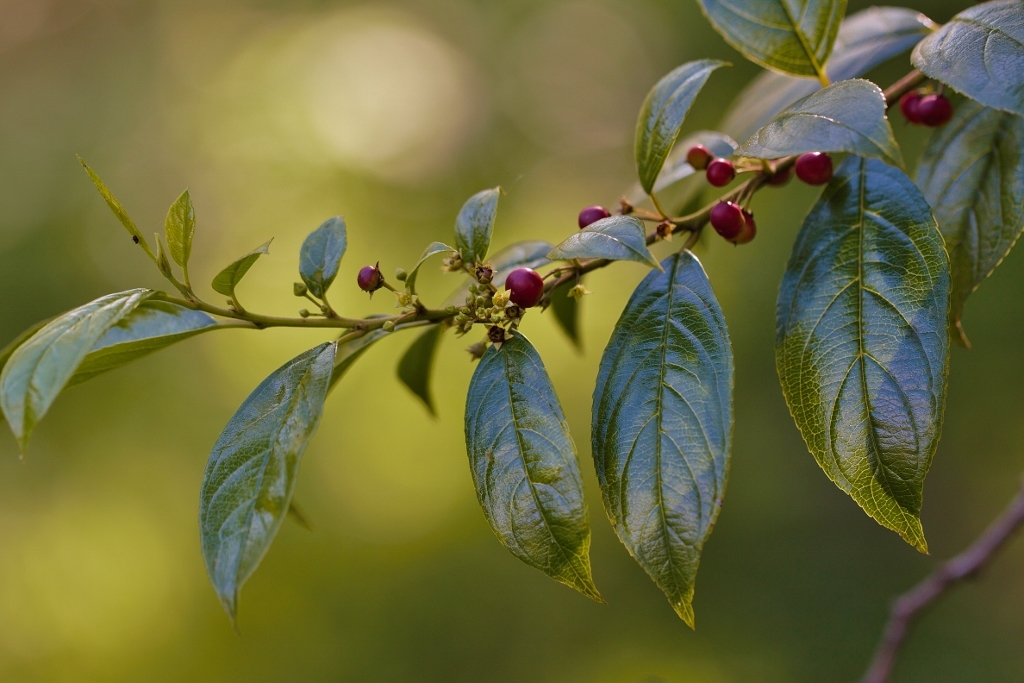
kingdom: Plantae
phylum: Tracheophyta
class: Magnoliopsida
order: Rosales
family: Rhamnaceae
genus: Rhamnus
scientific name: Rhamnus prinoides
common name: Dogwood
